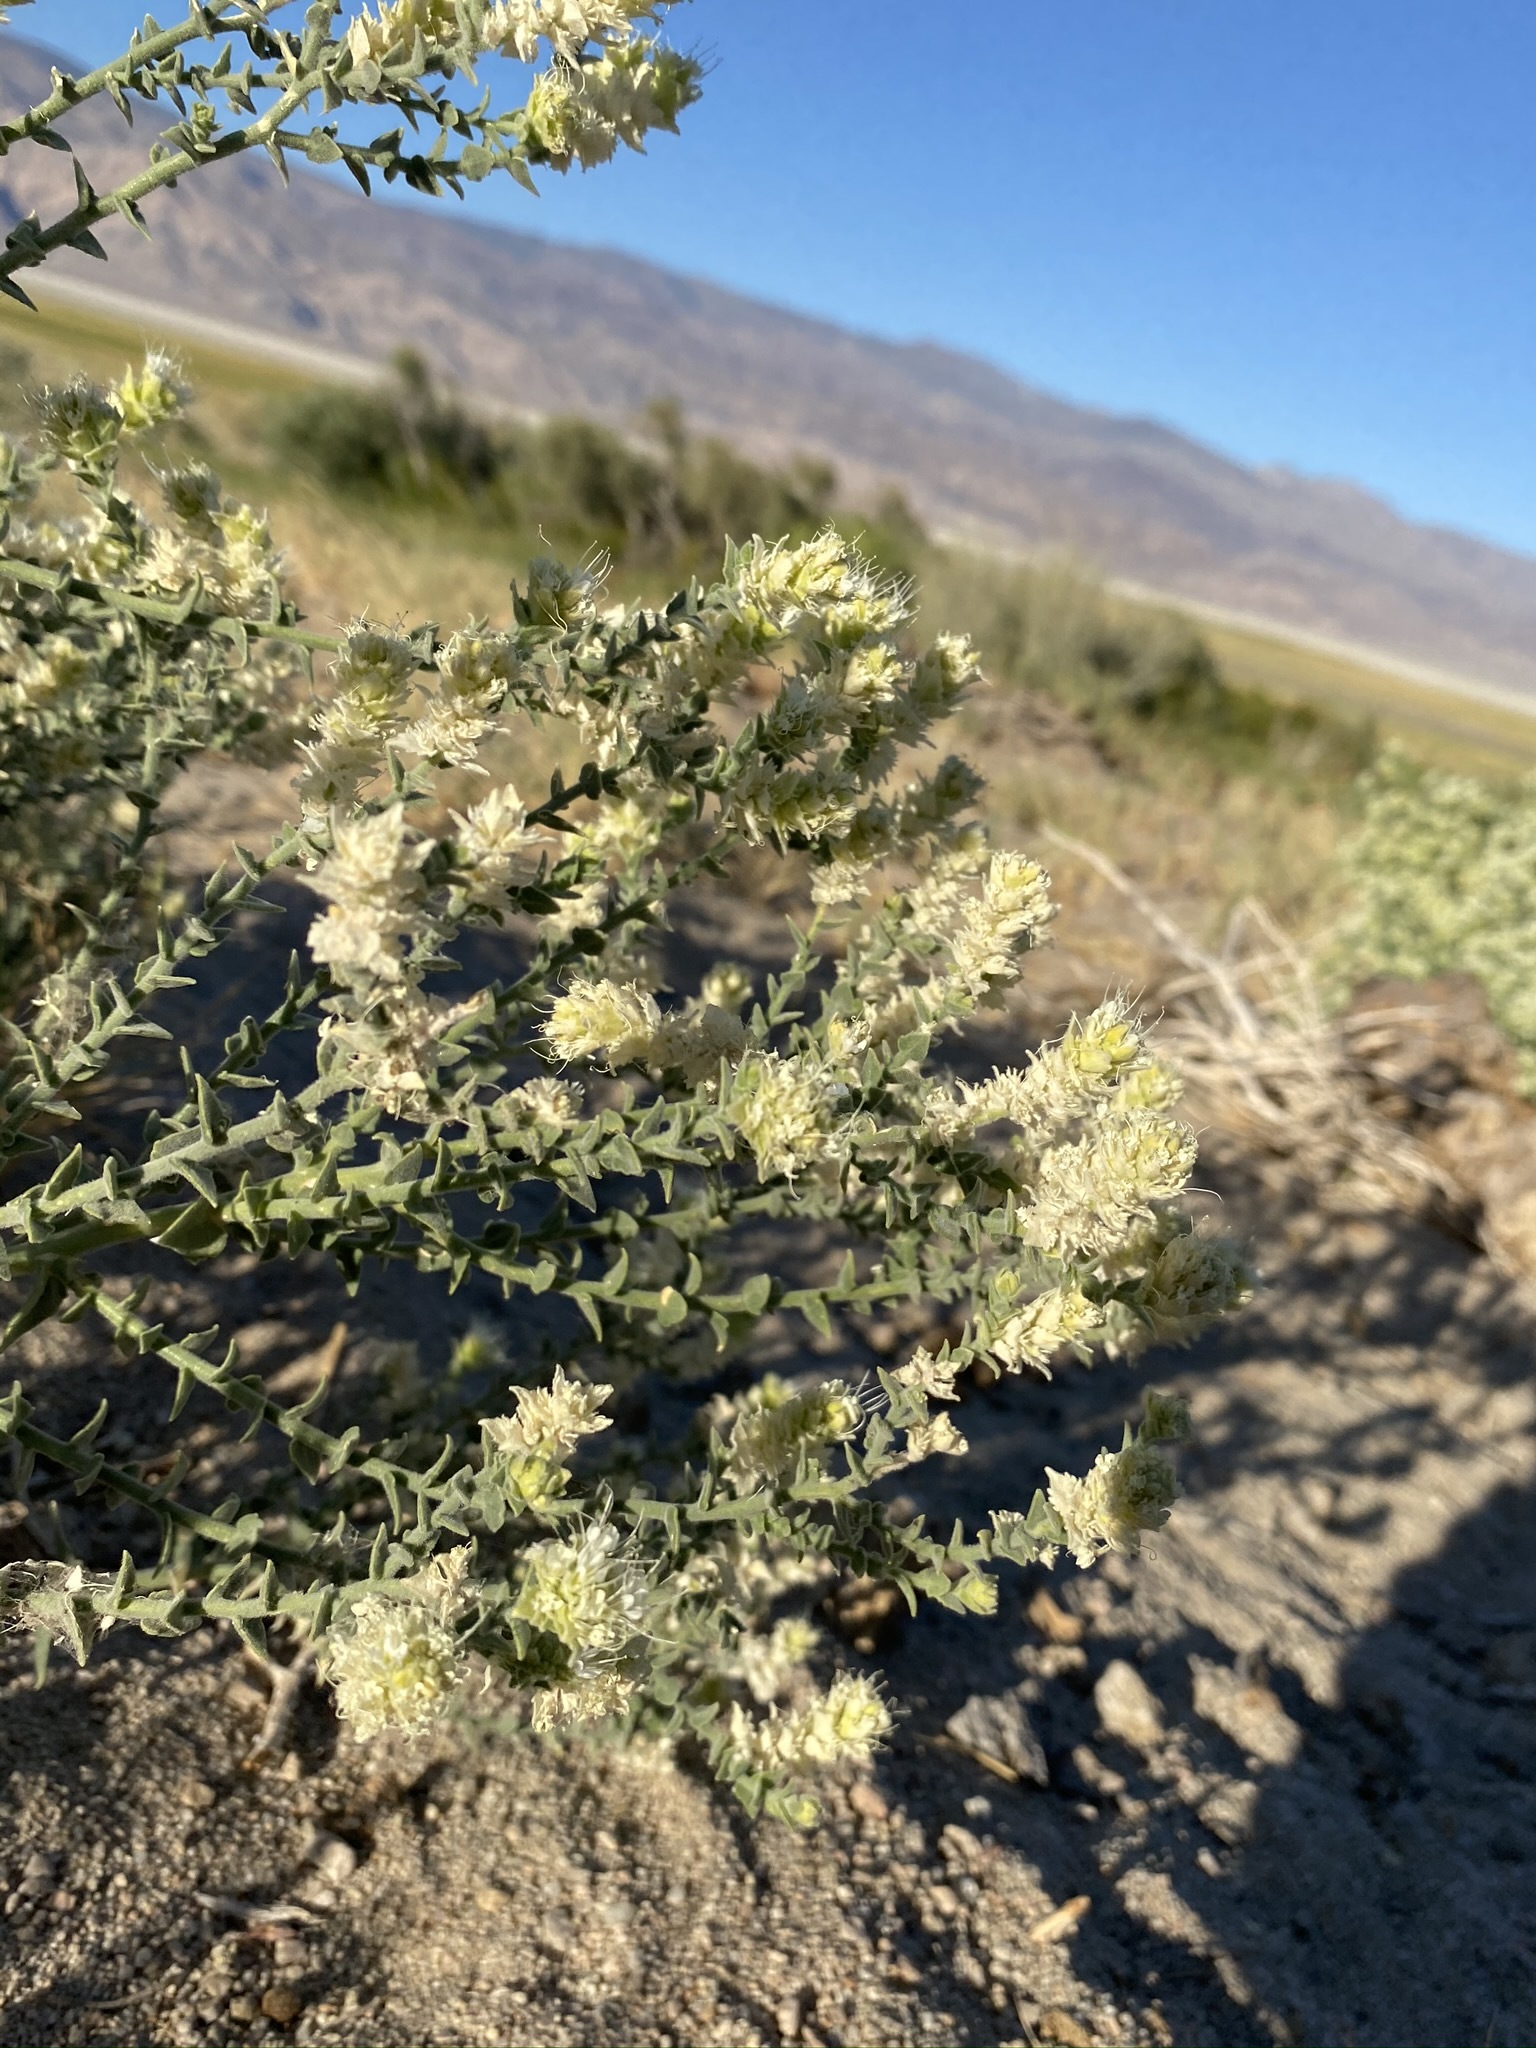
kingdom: Plantae
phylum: Tracheophyta
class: Magnoliopsida
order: Cornales
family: Loasaceae
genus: Petalonyx
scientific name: Petalonyx thurberi
